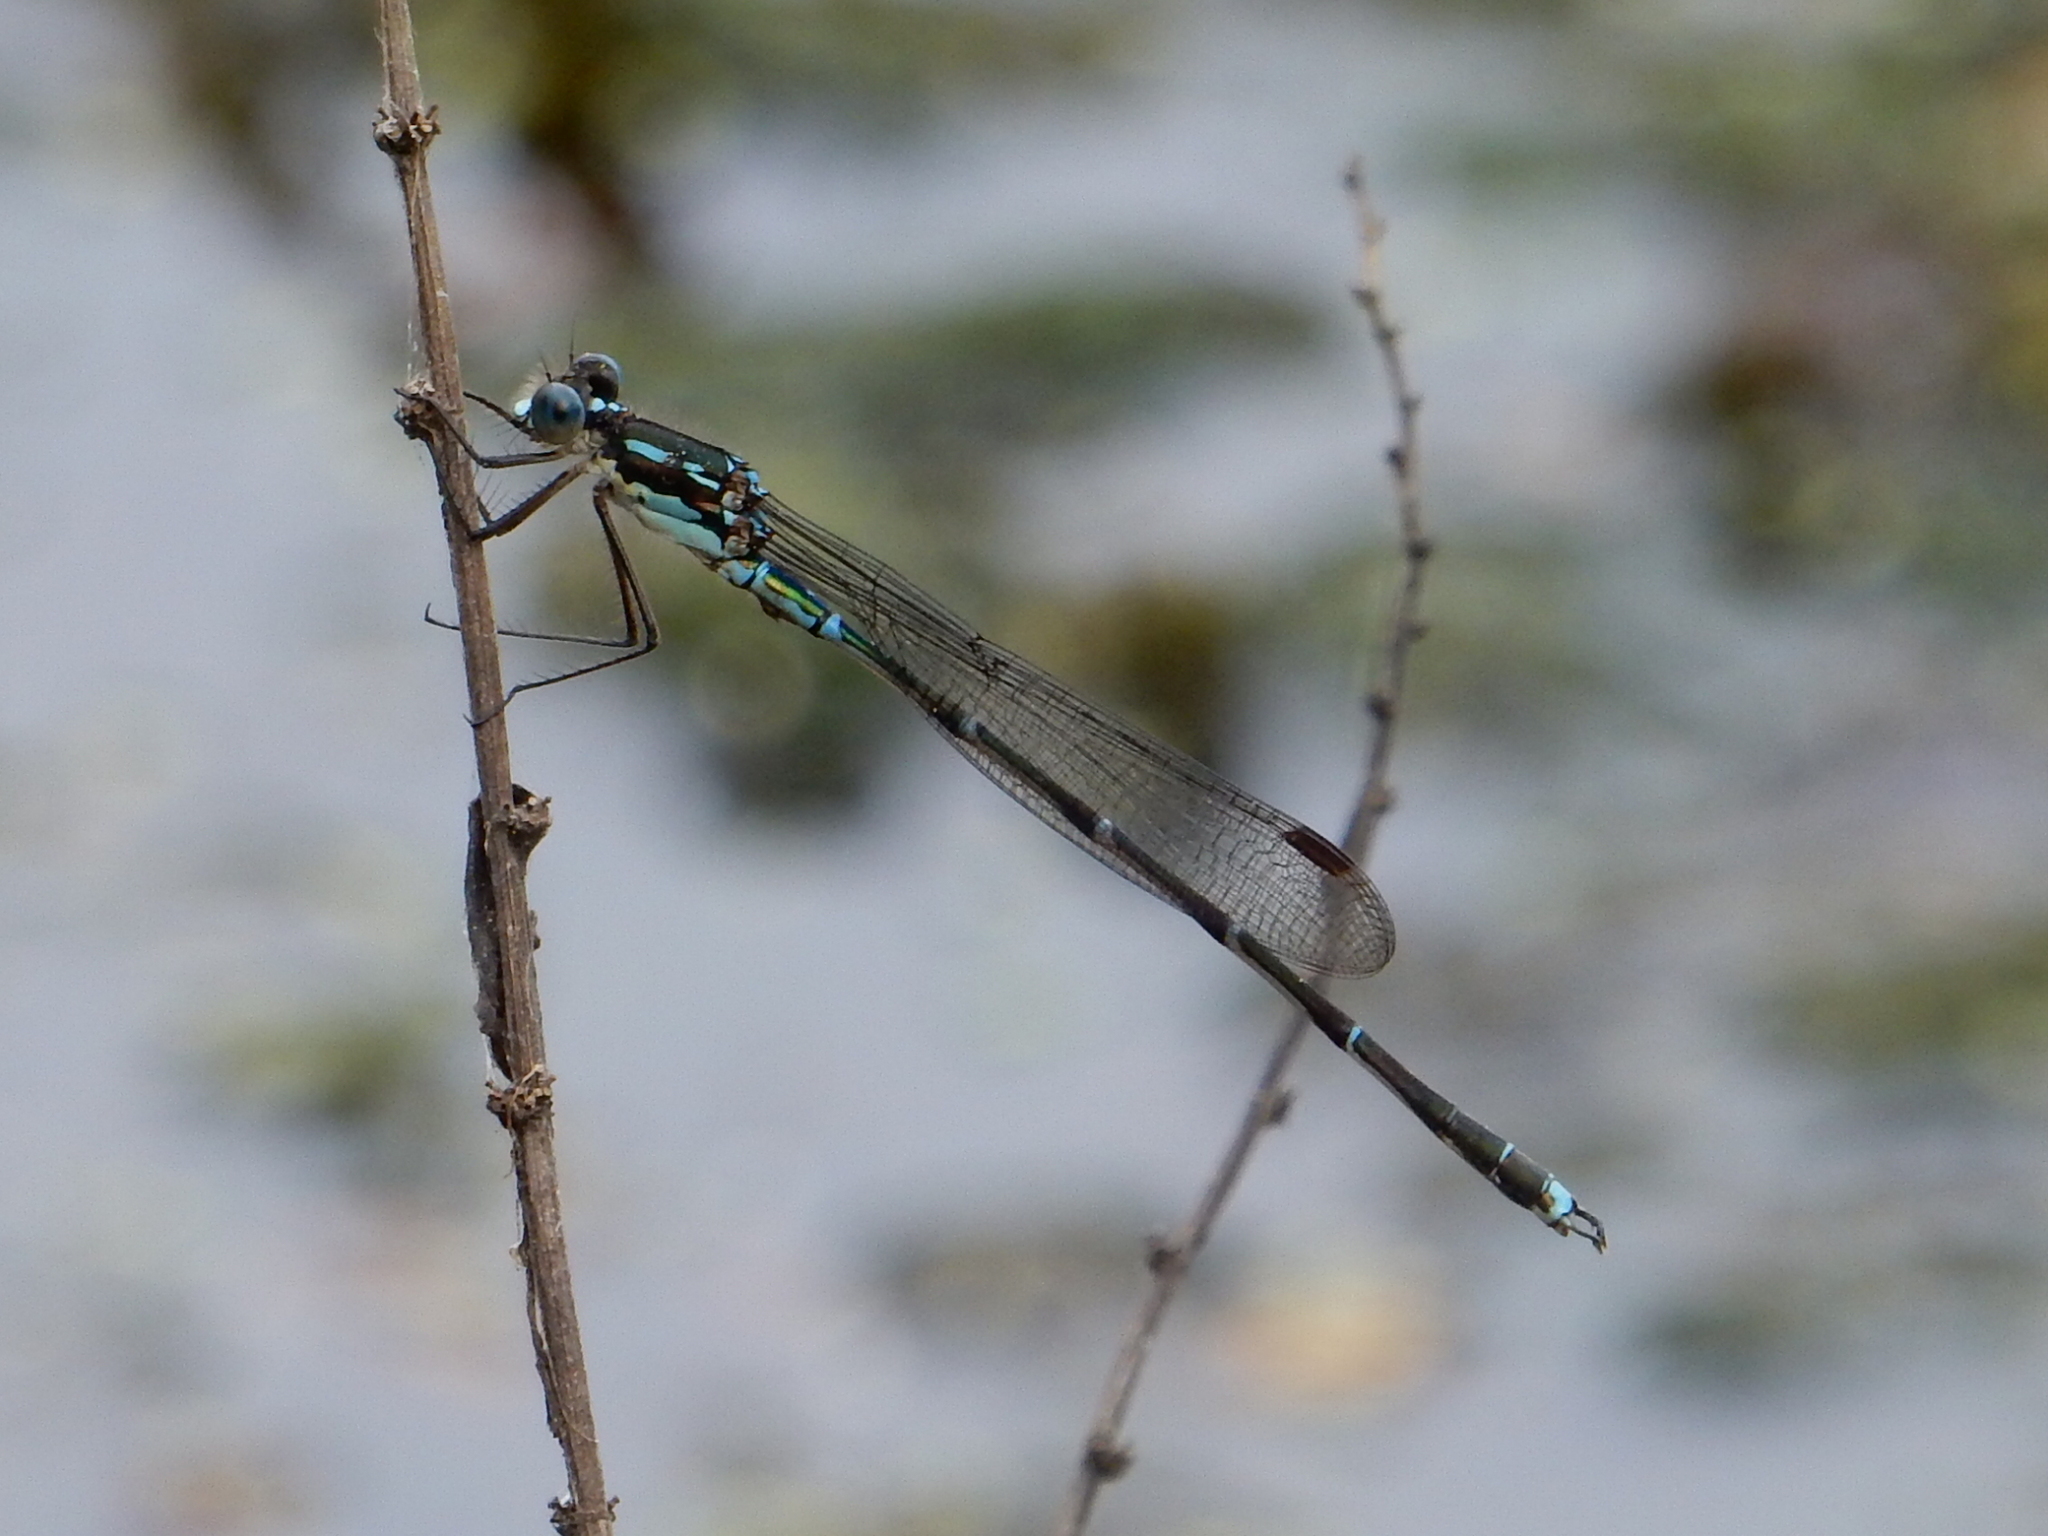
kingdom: Animalia
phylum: Arthropoda
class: Insecta
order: Odonata
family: Lestidae
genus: Austrolestes
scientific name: Austrolestes colensonis
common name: Blue damselfly
